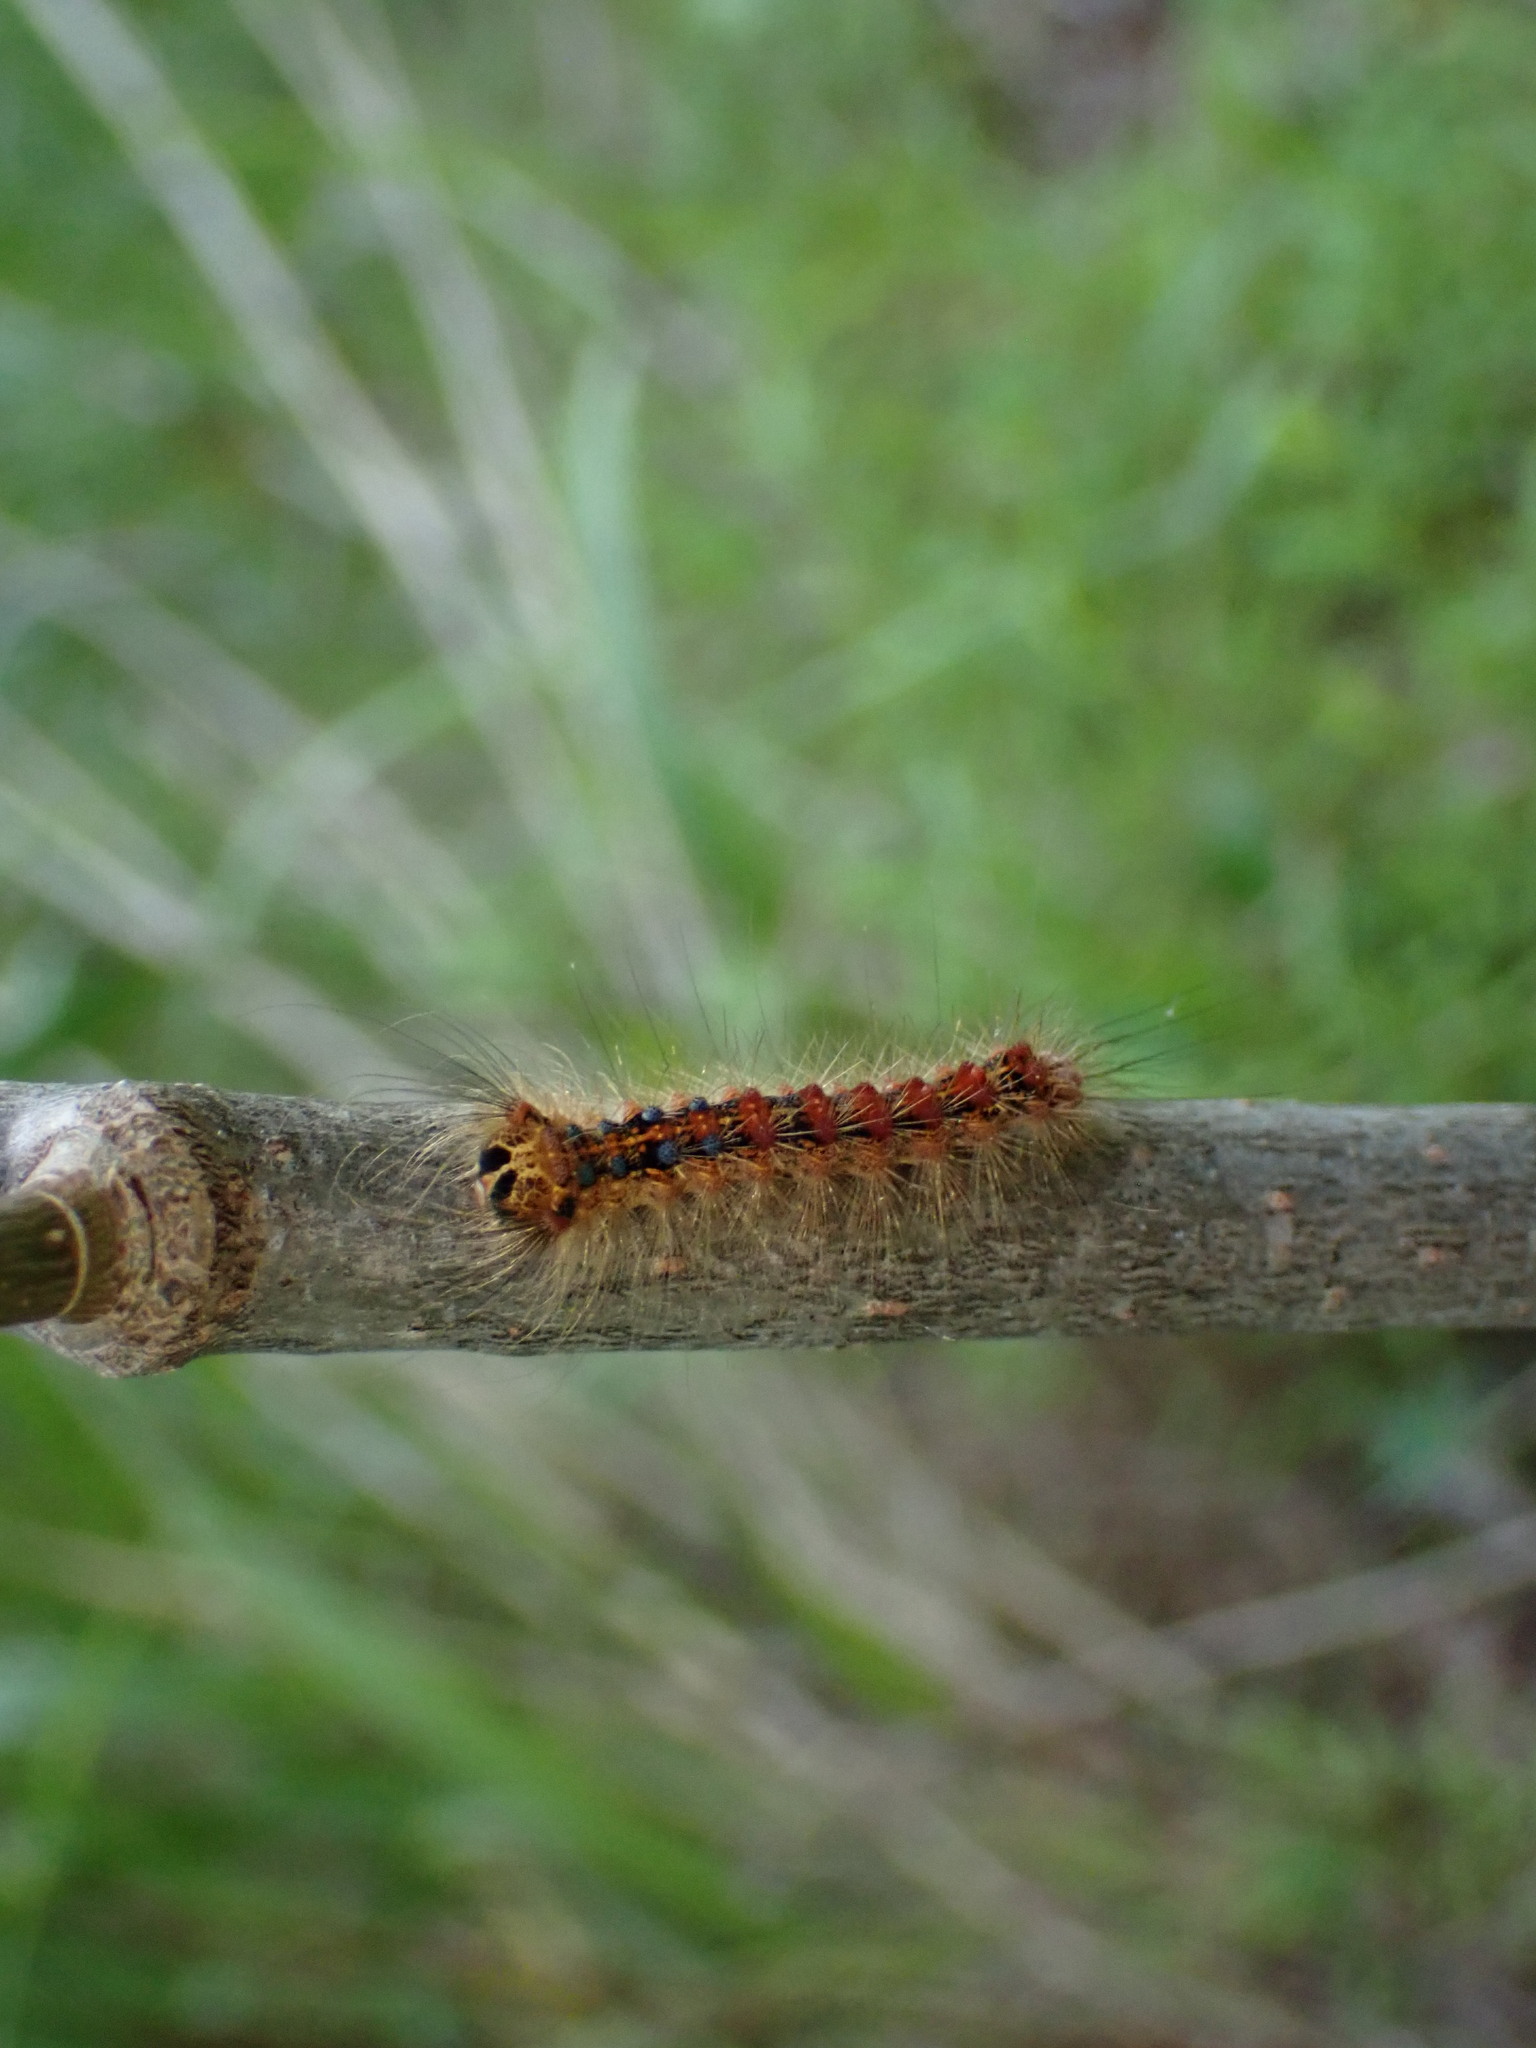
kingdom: Animalia
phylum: Arthropoda
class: Insecta
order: Lepidoptera
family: Erebidae
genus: Lymantria
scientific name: Lymantria dispar
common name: Gypsy moth
